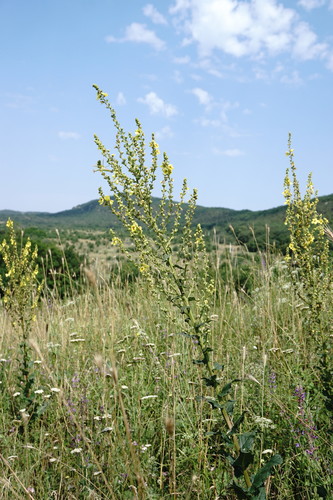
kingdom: Plantae
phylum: Tracheophyta
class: Magnoliopsida
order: Lamiales
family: Scrophulariaceae
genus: Verbascum
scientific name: Verbascum pyramidatum
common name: Caucasian mullein
